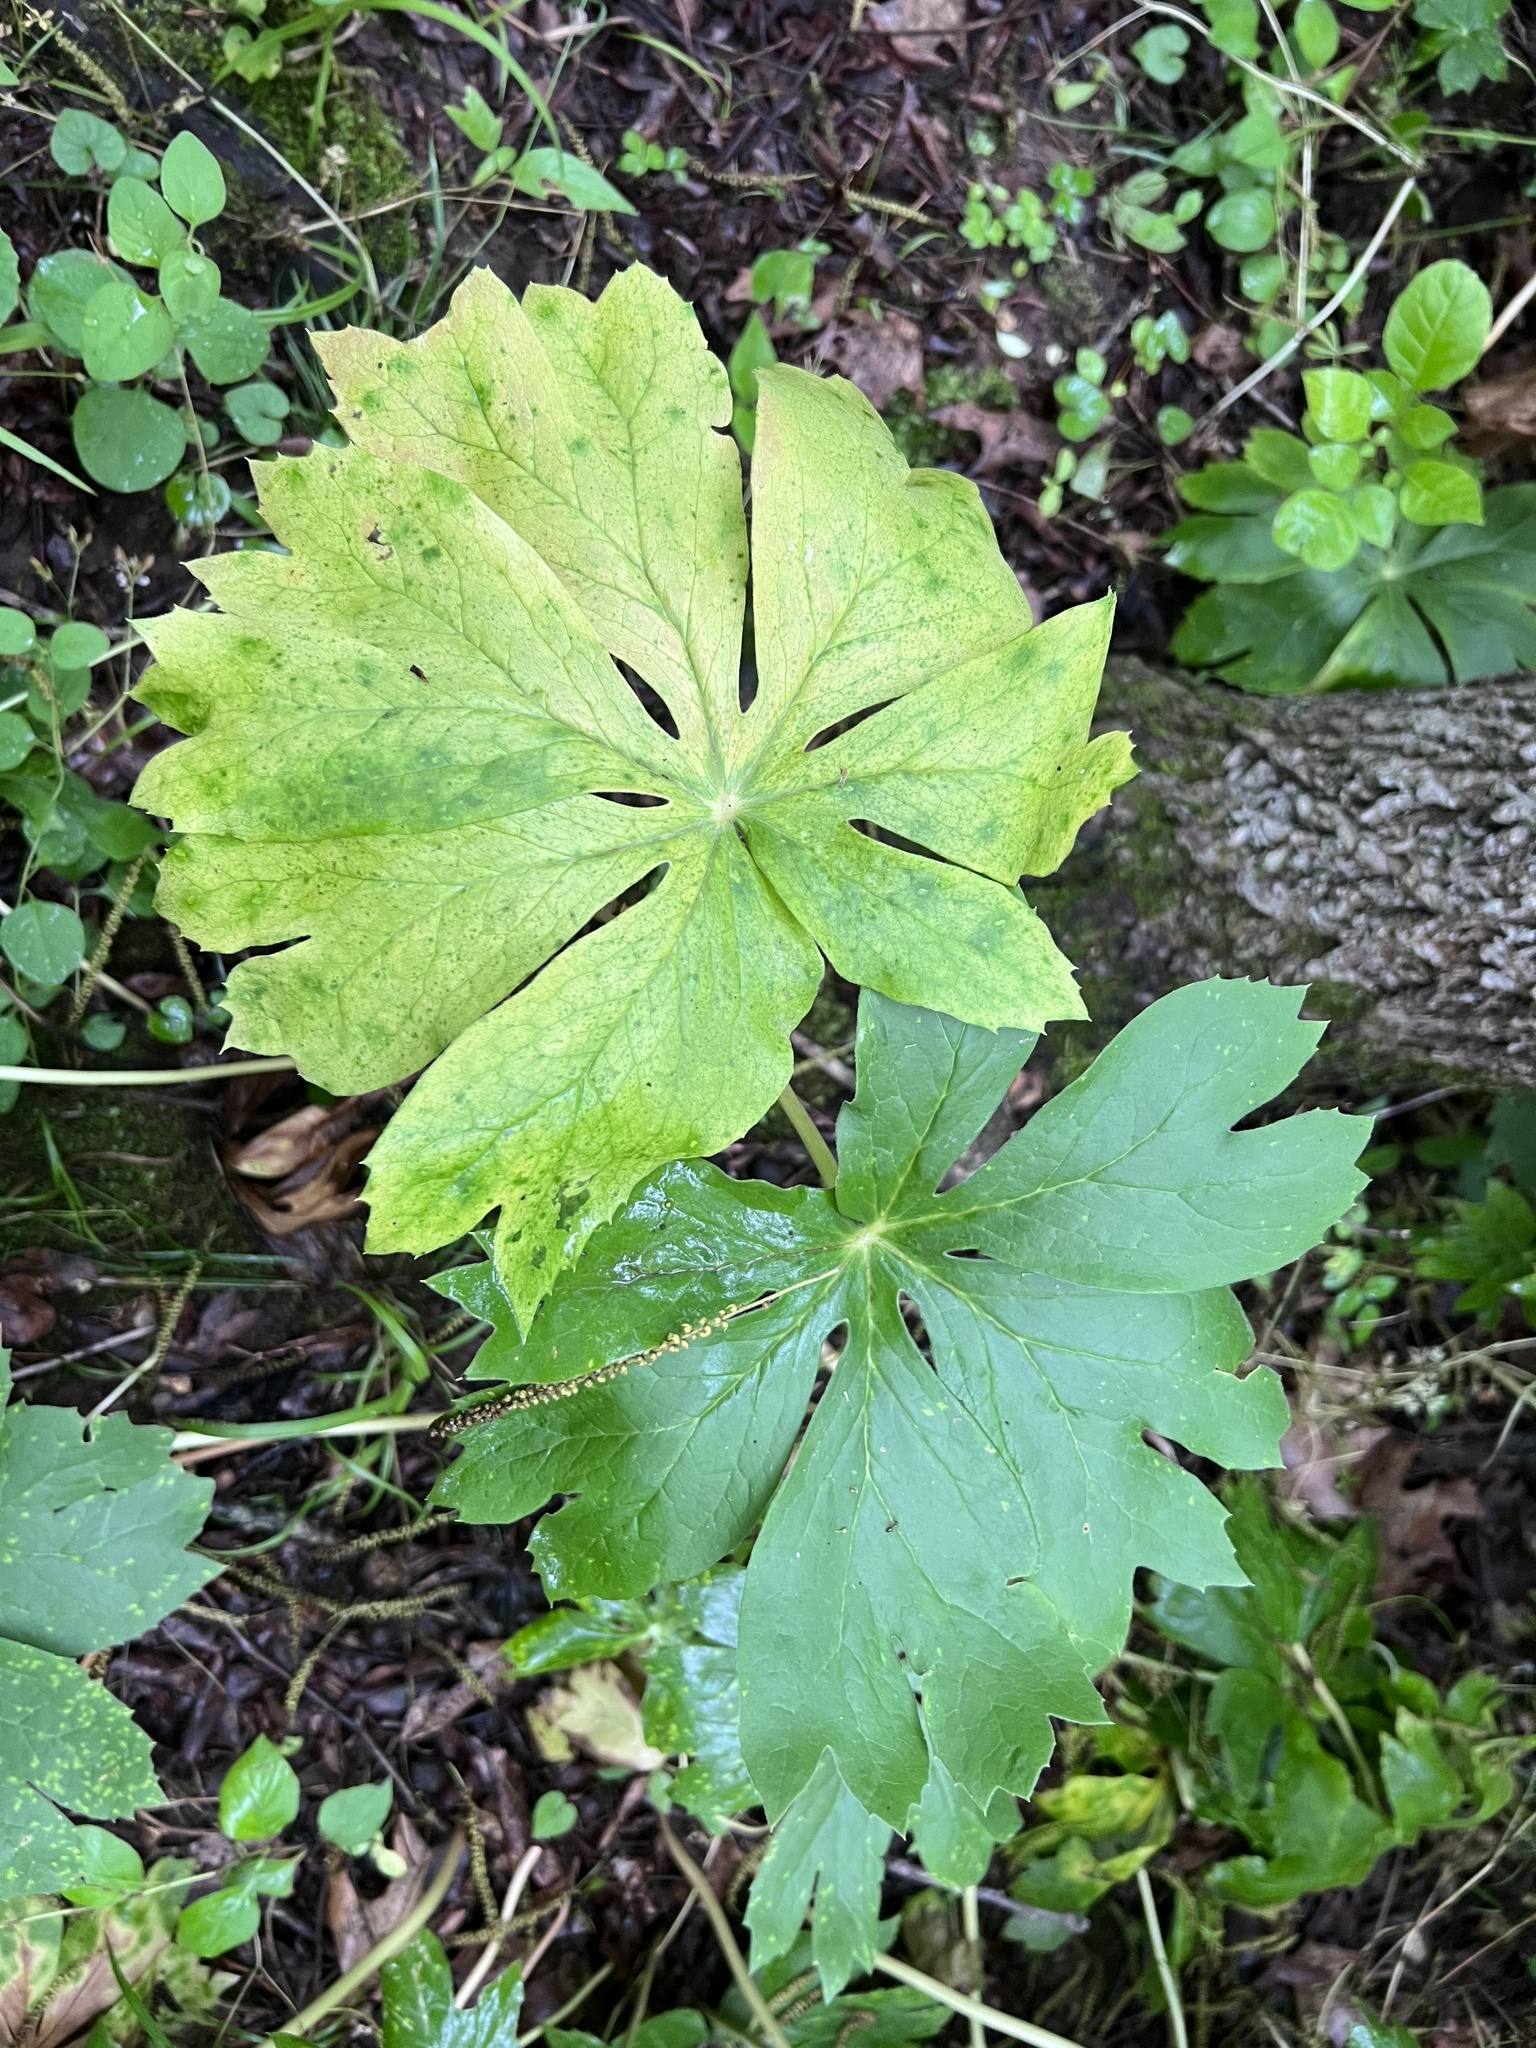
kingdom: Plantae
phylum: Tracheophyta
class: Magnoliopsida
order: Ranunculales
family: Berberidaceae
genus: Podophyllum
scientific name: Podophyllum peltatum
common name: Wild mandrake
